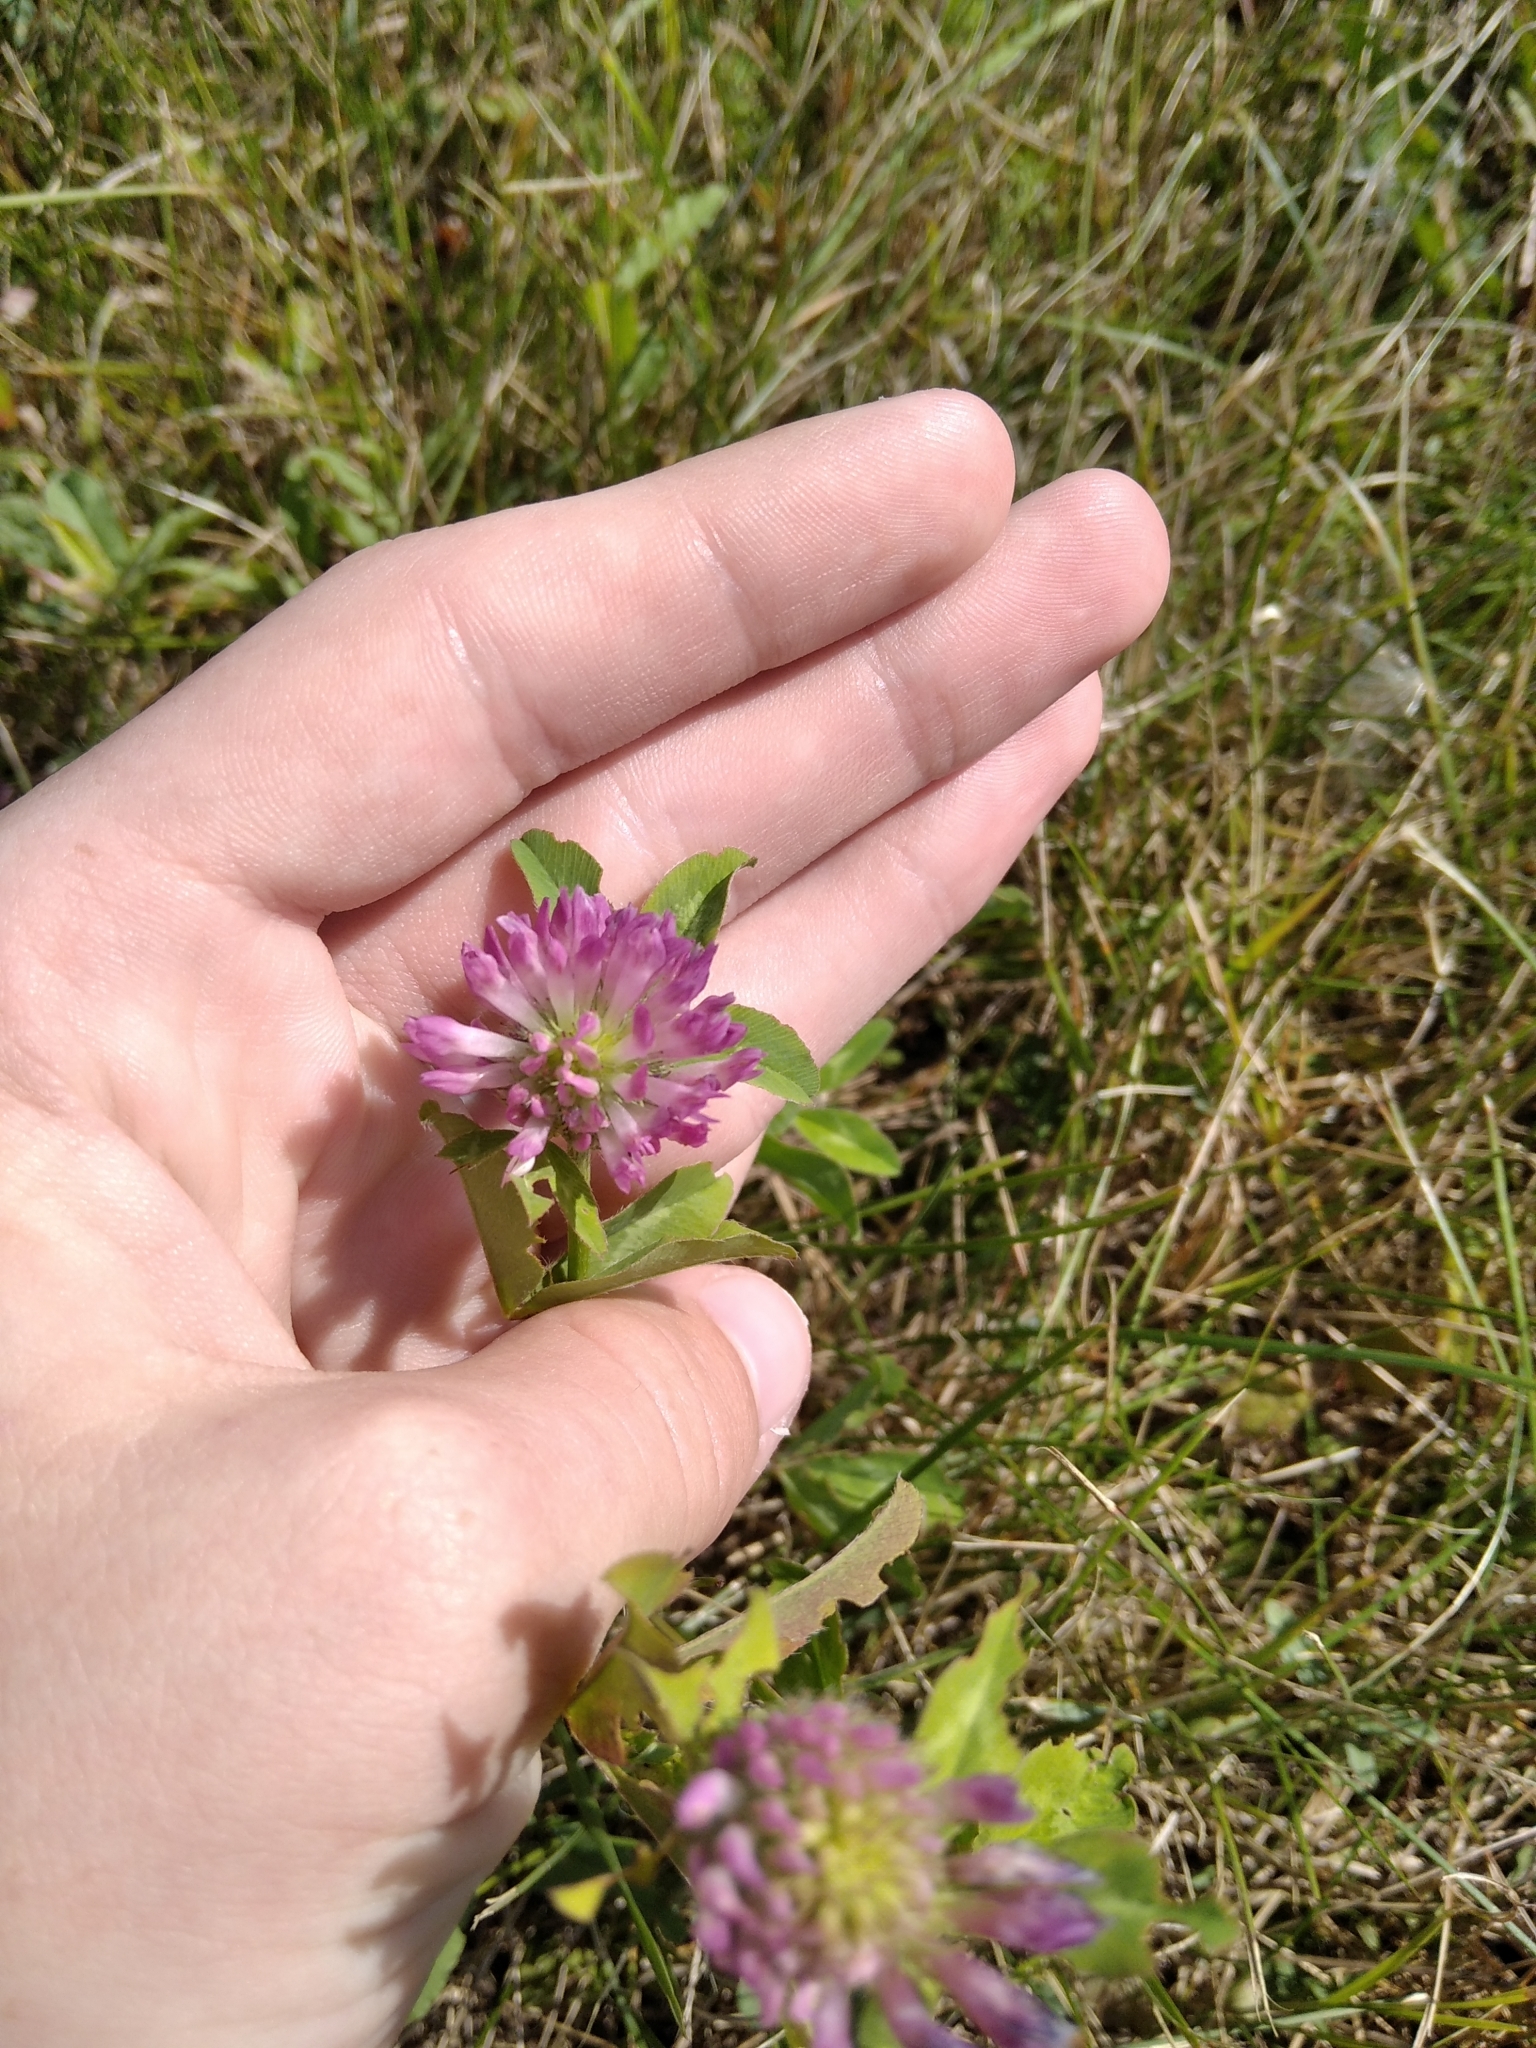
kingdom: Plantae
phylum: Tracheophyta
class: Magnoliopsida
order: Fabales
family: Fabaceae
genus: Trifolium
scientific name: Trifolium pratense
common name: Red clover
